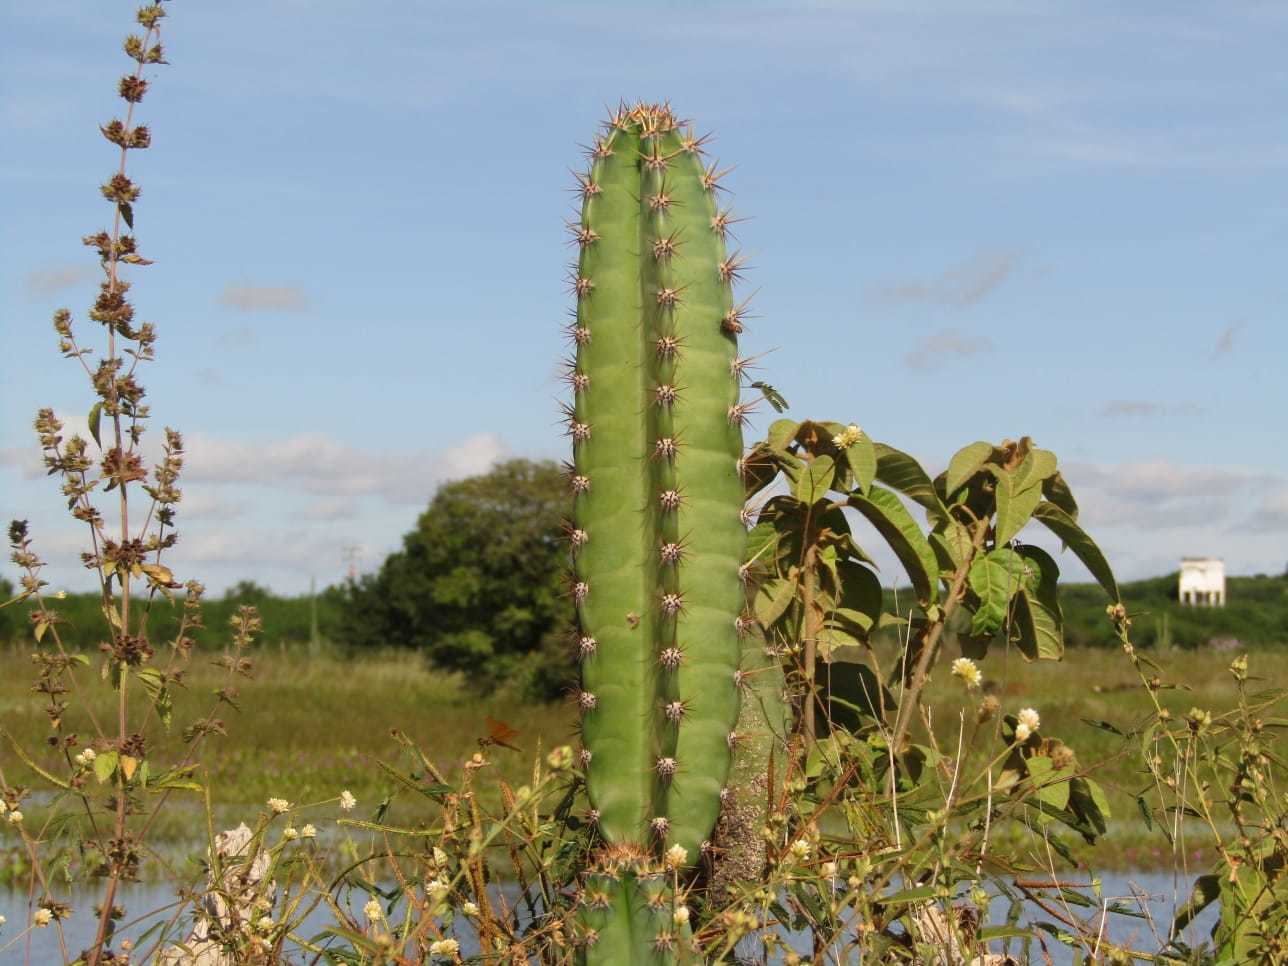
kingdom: Plantae
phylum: Tracheophyta
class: Magnoliopsida
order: Caryophyllales
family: Cactaceae
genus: Cereus
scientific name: Cereus jamacaru
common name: Queen-of-the-night
